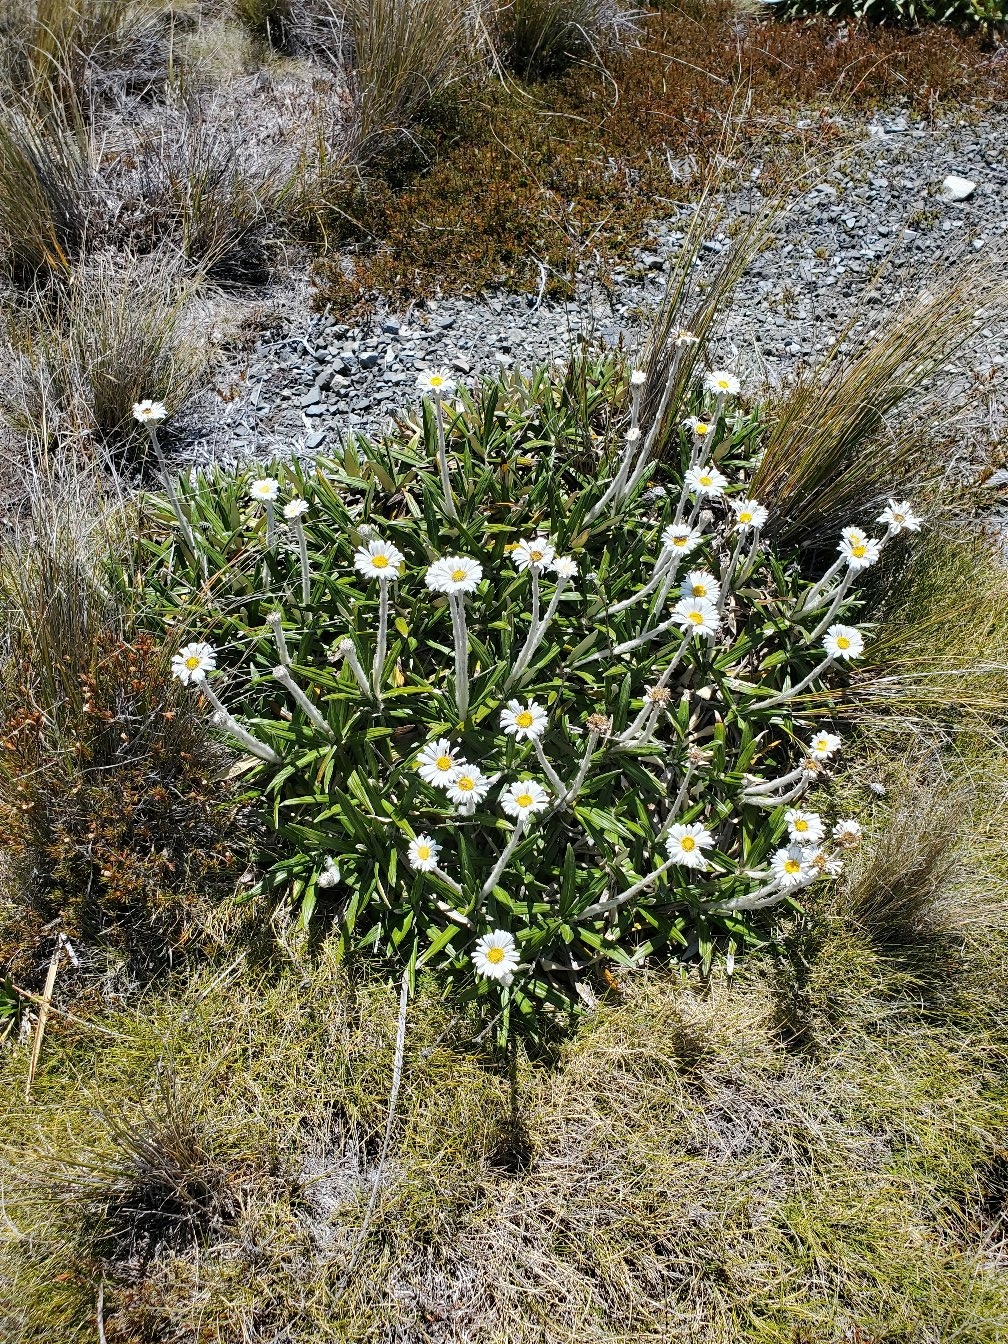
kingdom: Plantae
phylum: Tracheophyta
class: Magnoliopsida
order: Asterales
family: Asteraceae
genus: Celmisia
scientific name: Celmisia spectabilis
